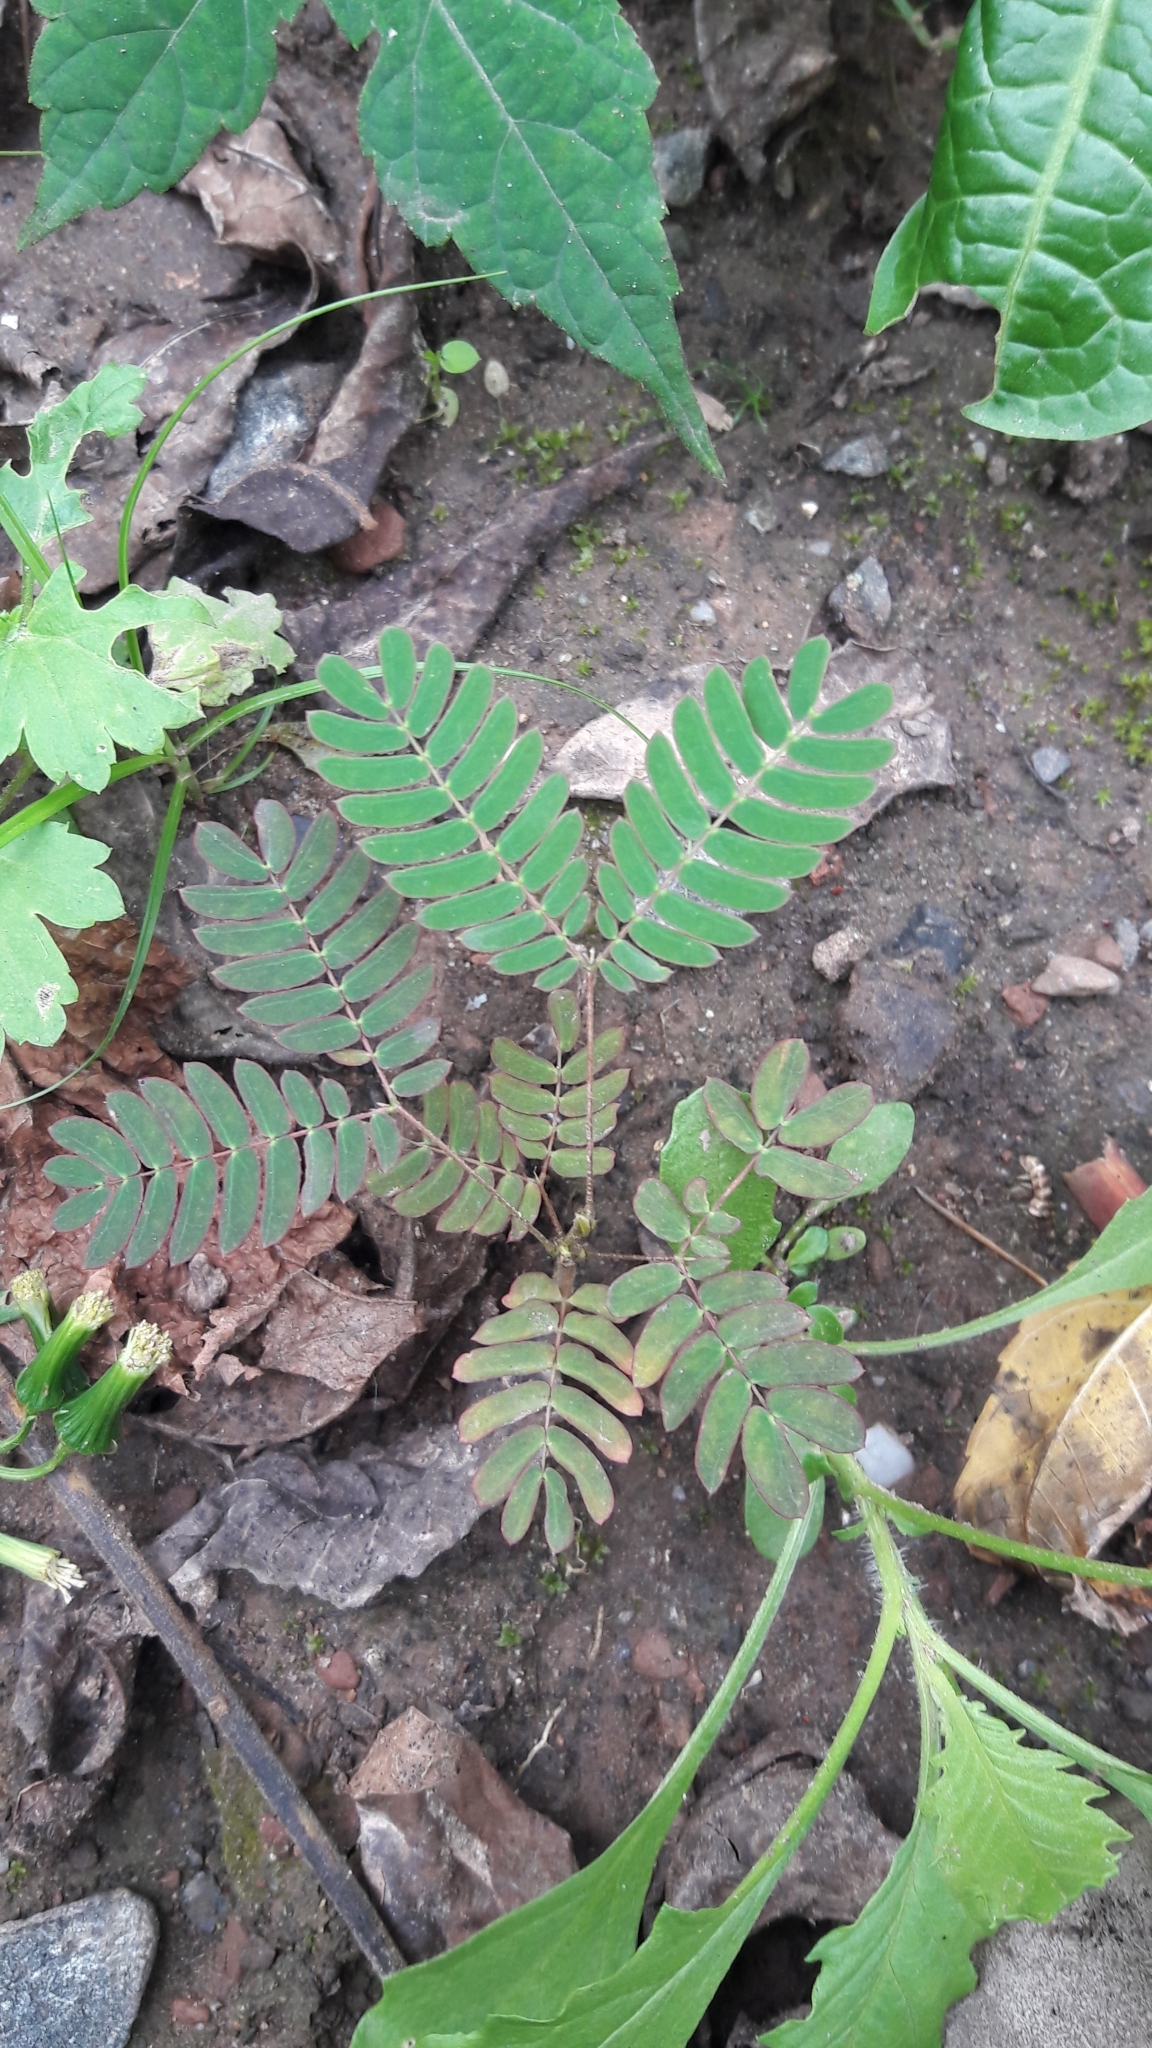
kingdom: Plantae
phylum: Tracheophyta
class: Magnoliopsida
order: Fabales
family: Fabaceae
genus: Albizia
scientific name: Albizia julibrissin
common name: Silktree
